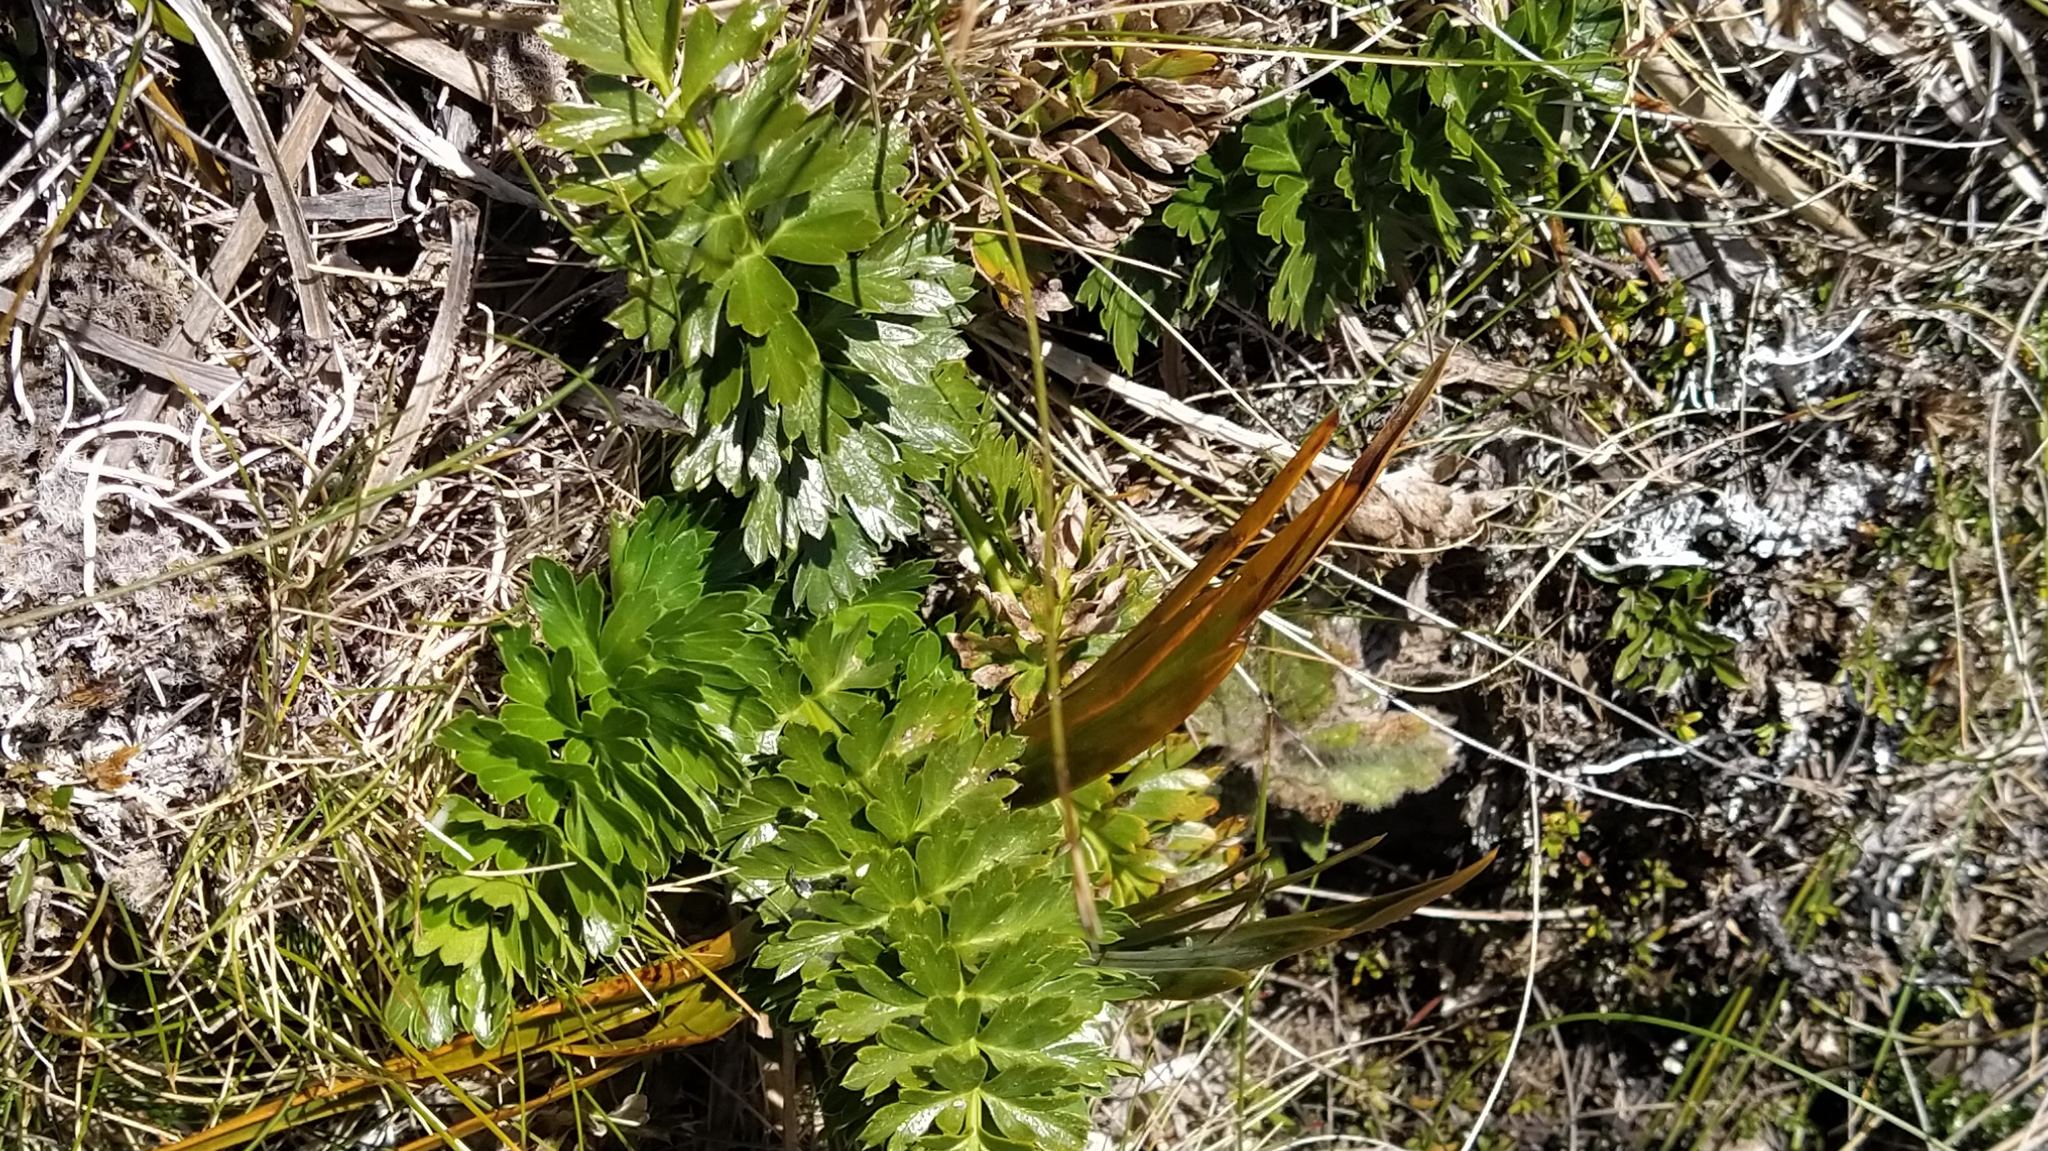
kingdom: Plantae
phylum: Tracheophyta
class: Magnoliopsida
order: Apiales
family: Apiaceae
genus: Anisotome
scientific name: Anisotome pilifera
